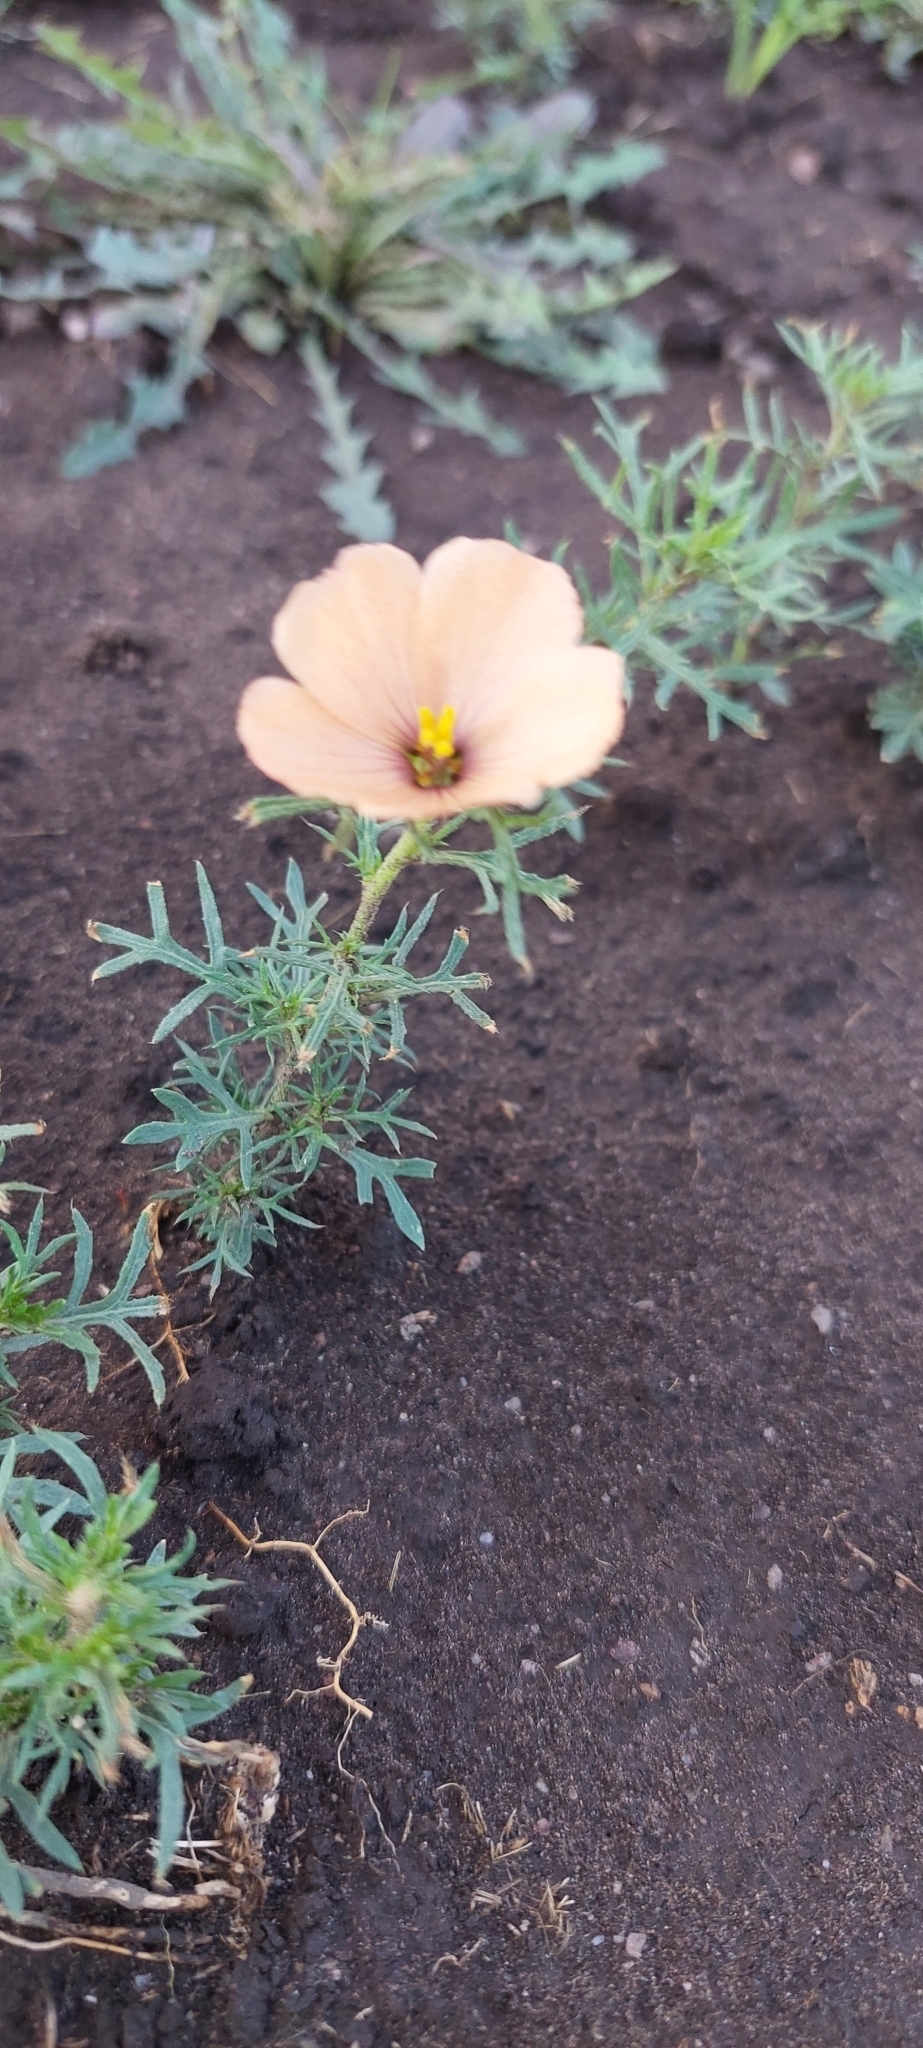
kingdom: Plantae
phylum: Tracheophyta
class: Magnoliopsida
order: Malpighiales
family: Turneraceae
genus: Turnera
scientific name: Turnera sidoides
